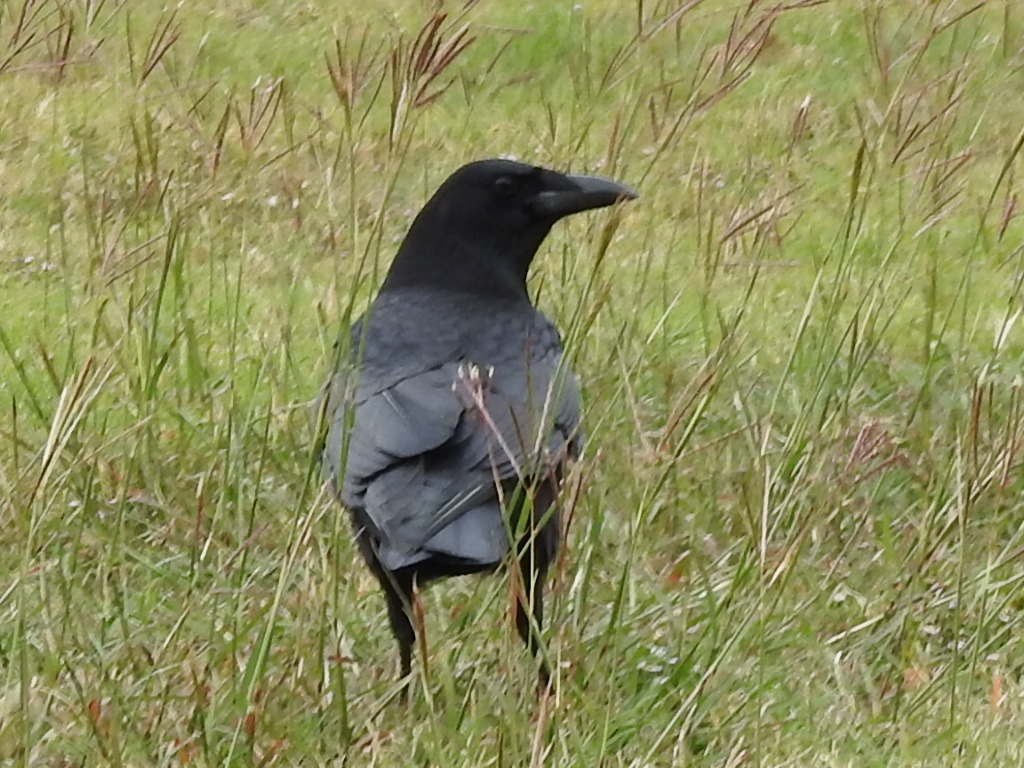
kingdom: Animalia
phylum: Chordata
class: Aves
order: Passeriformes
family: Corvidae
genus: Corvus
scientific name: Corvus brachyrhynchos
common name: American crow
